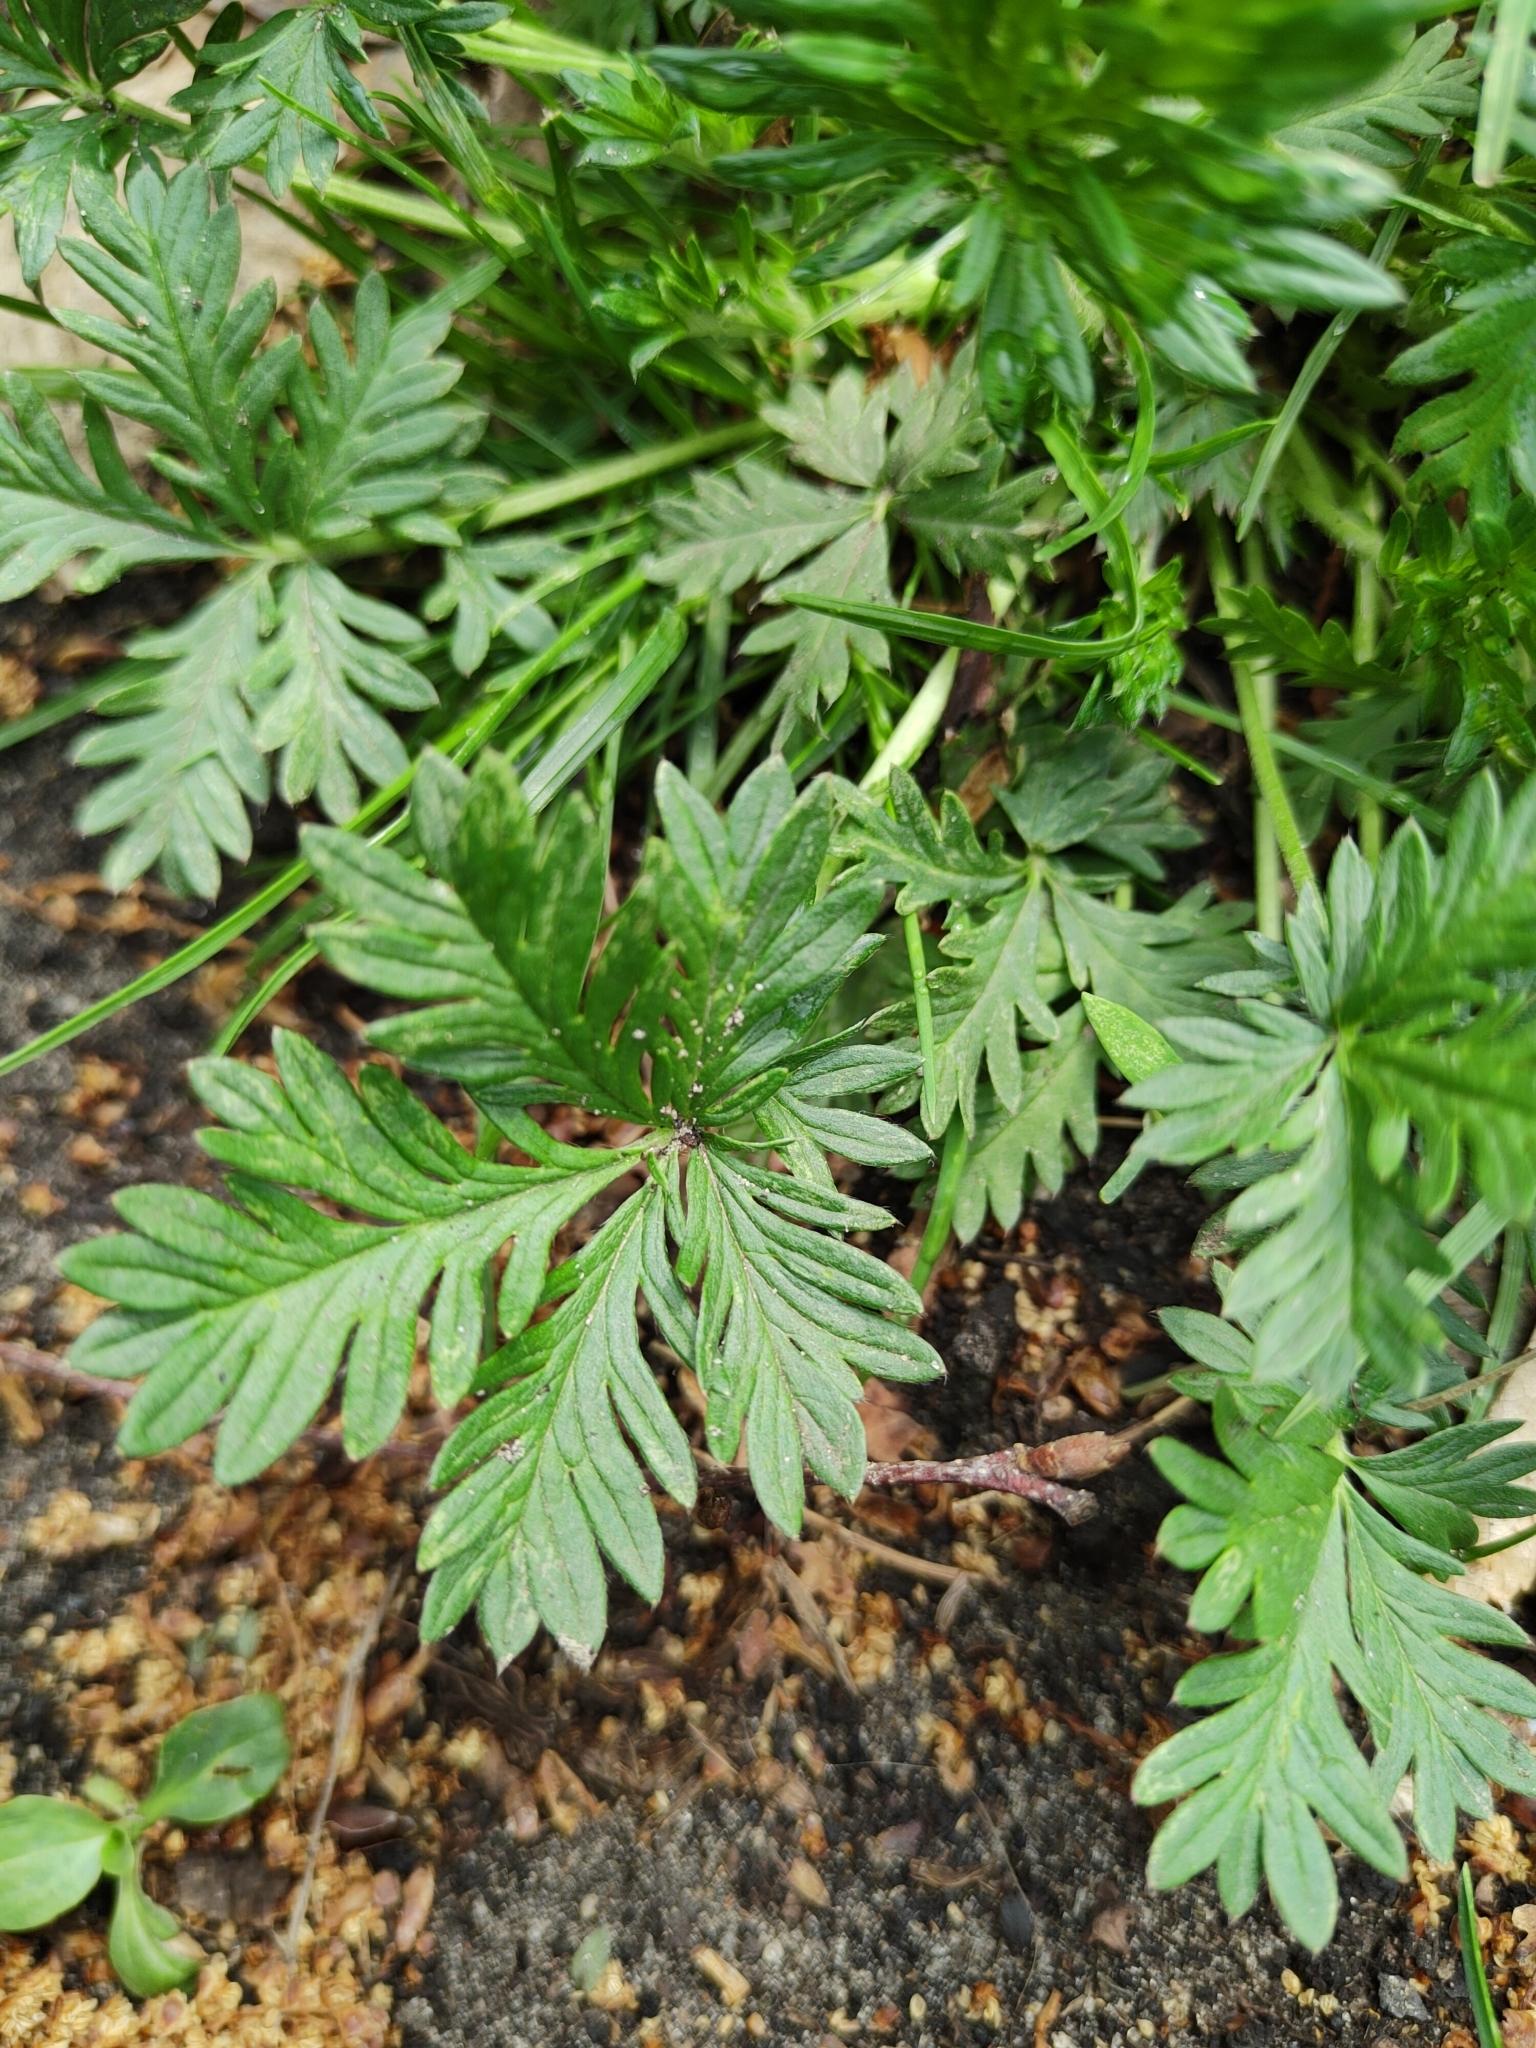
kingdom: Plantae
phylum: Tracheophyta
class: Magnoliopsida
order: Rosales
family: Rosaceae
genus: Potentilla
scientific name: Potentilla argentea
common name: Hoary cinquefoil
